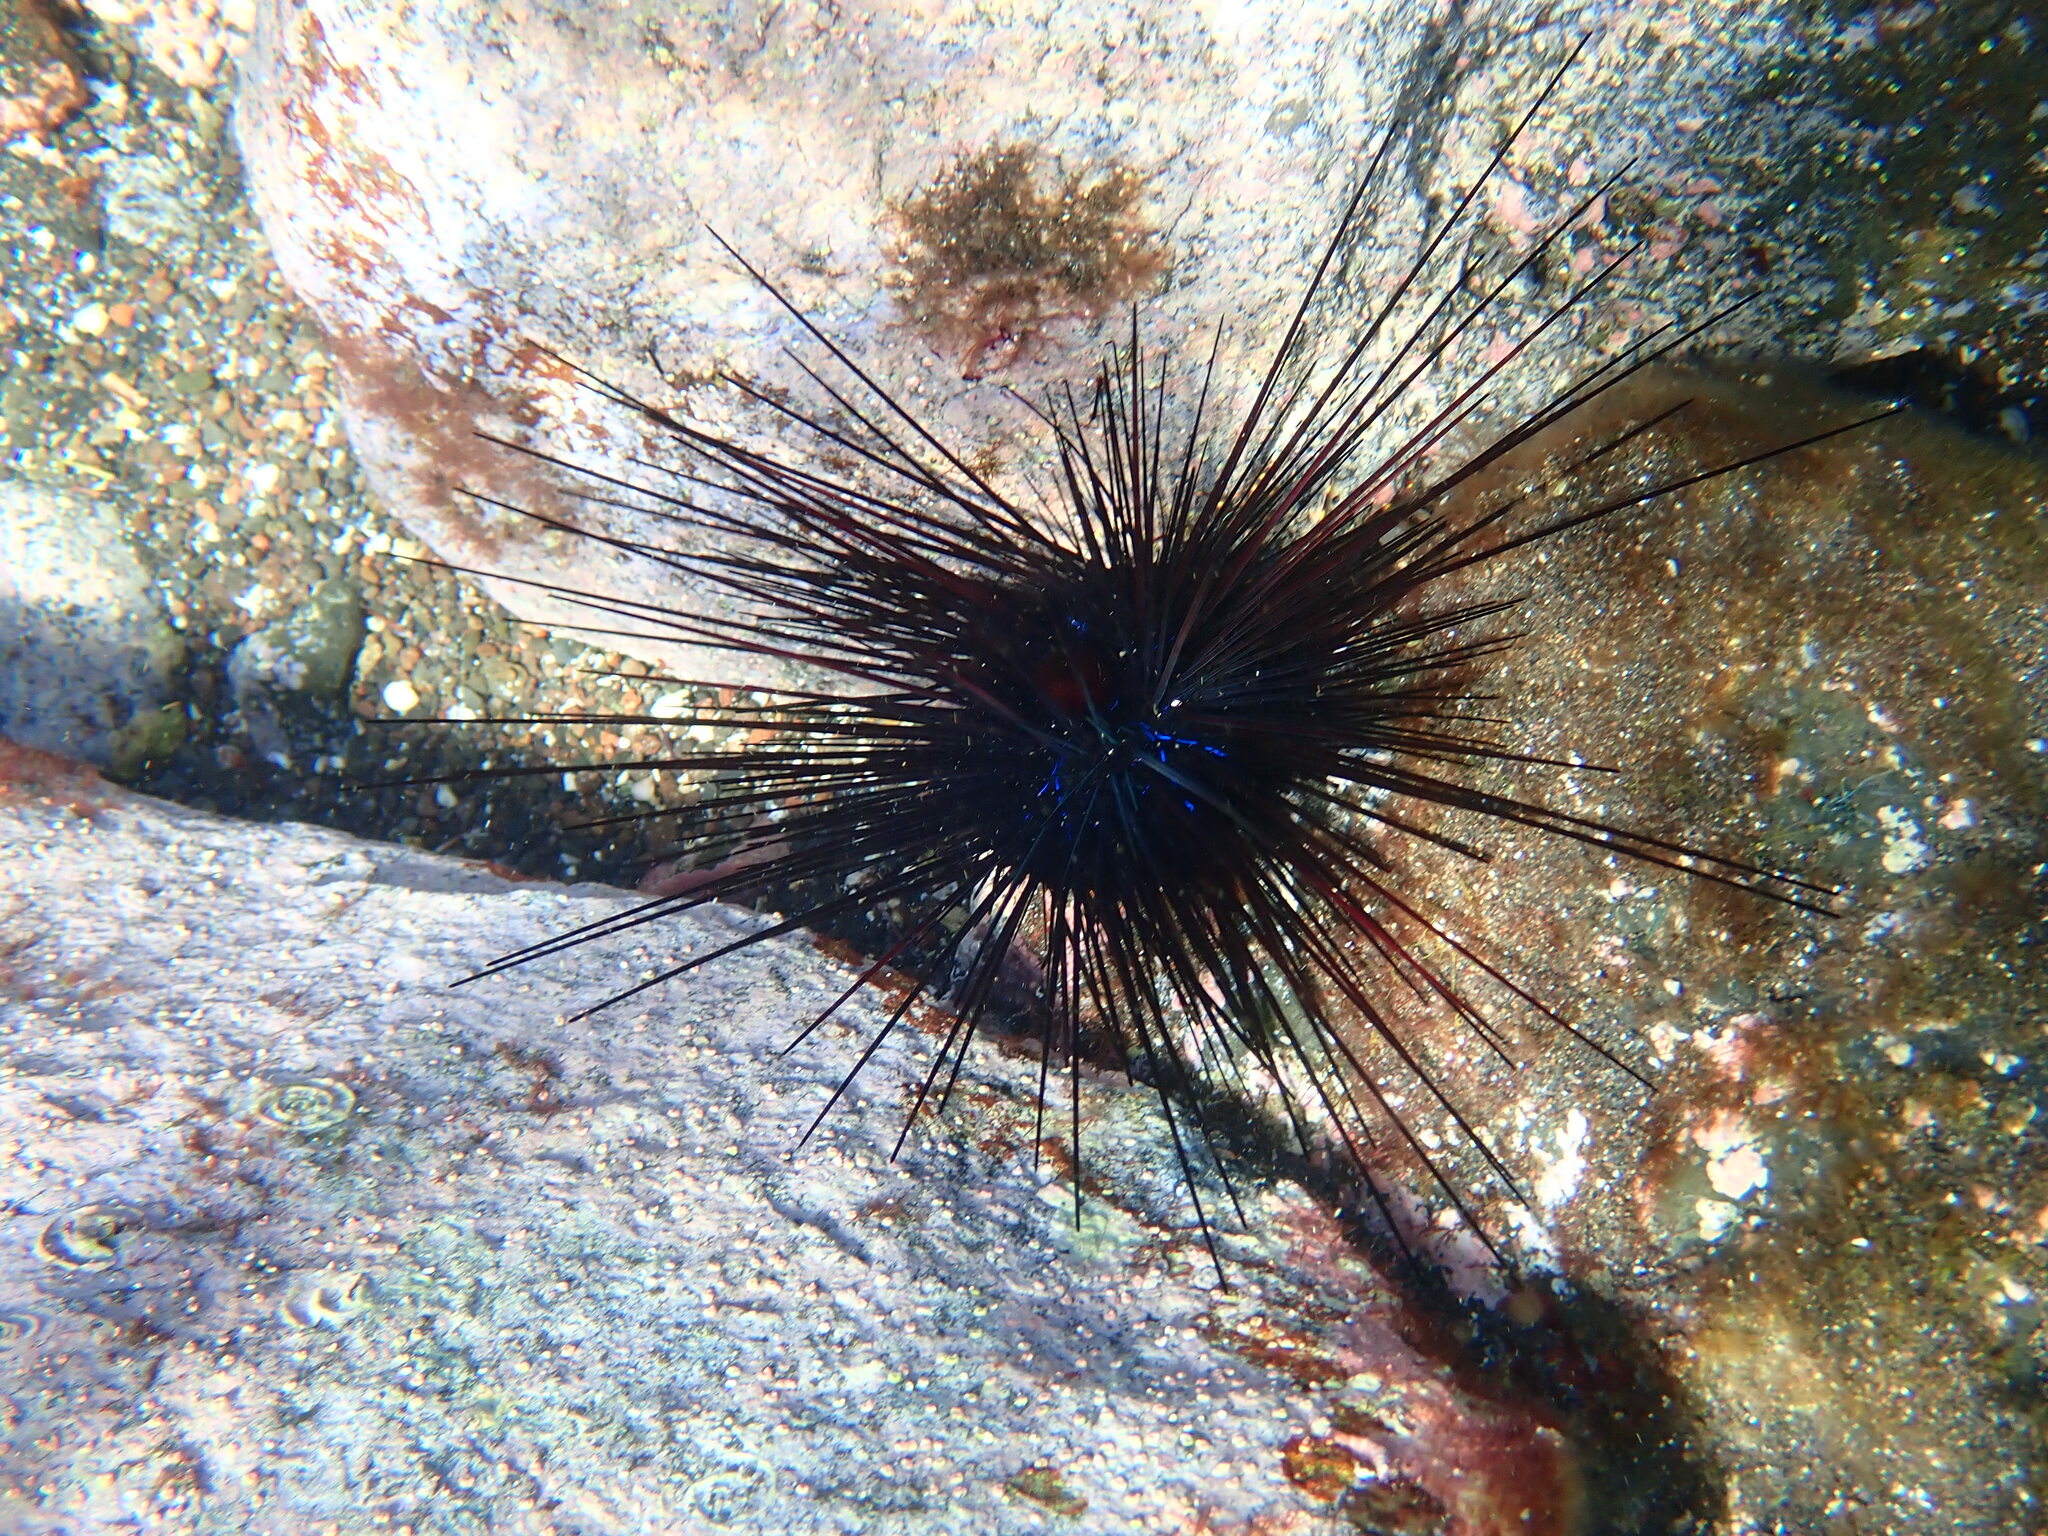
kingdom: Animalia
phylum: Echinodermata
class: Echinoidea
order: Diadematoida
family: Diadematidae
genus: Diadema
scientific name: Diadema africanum
